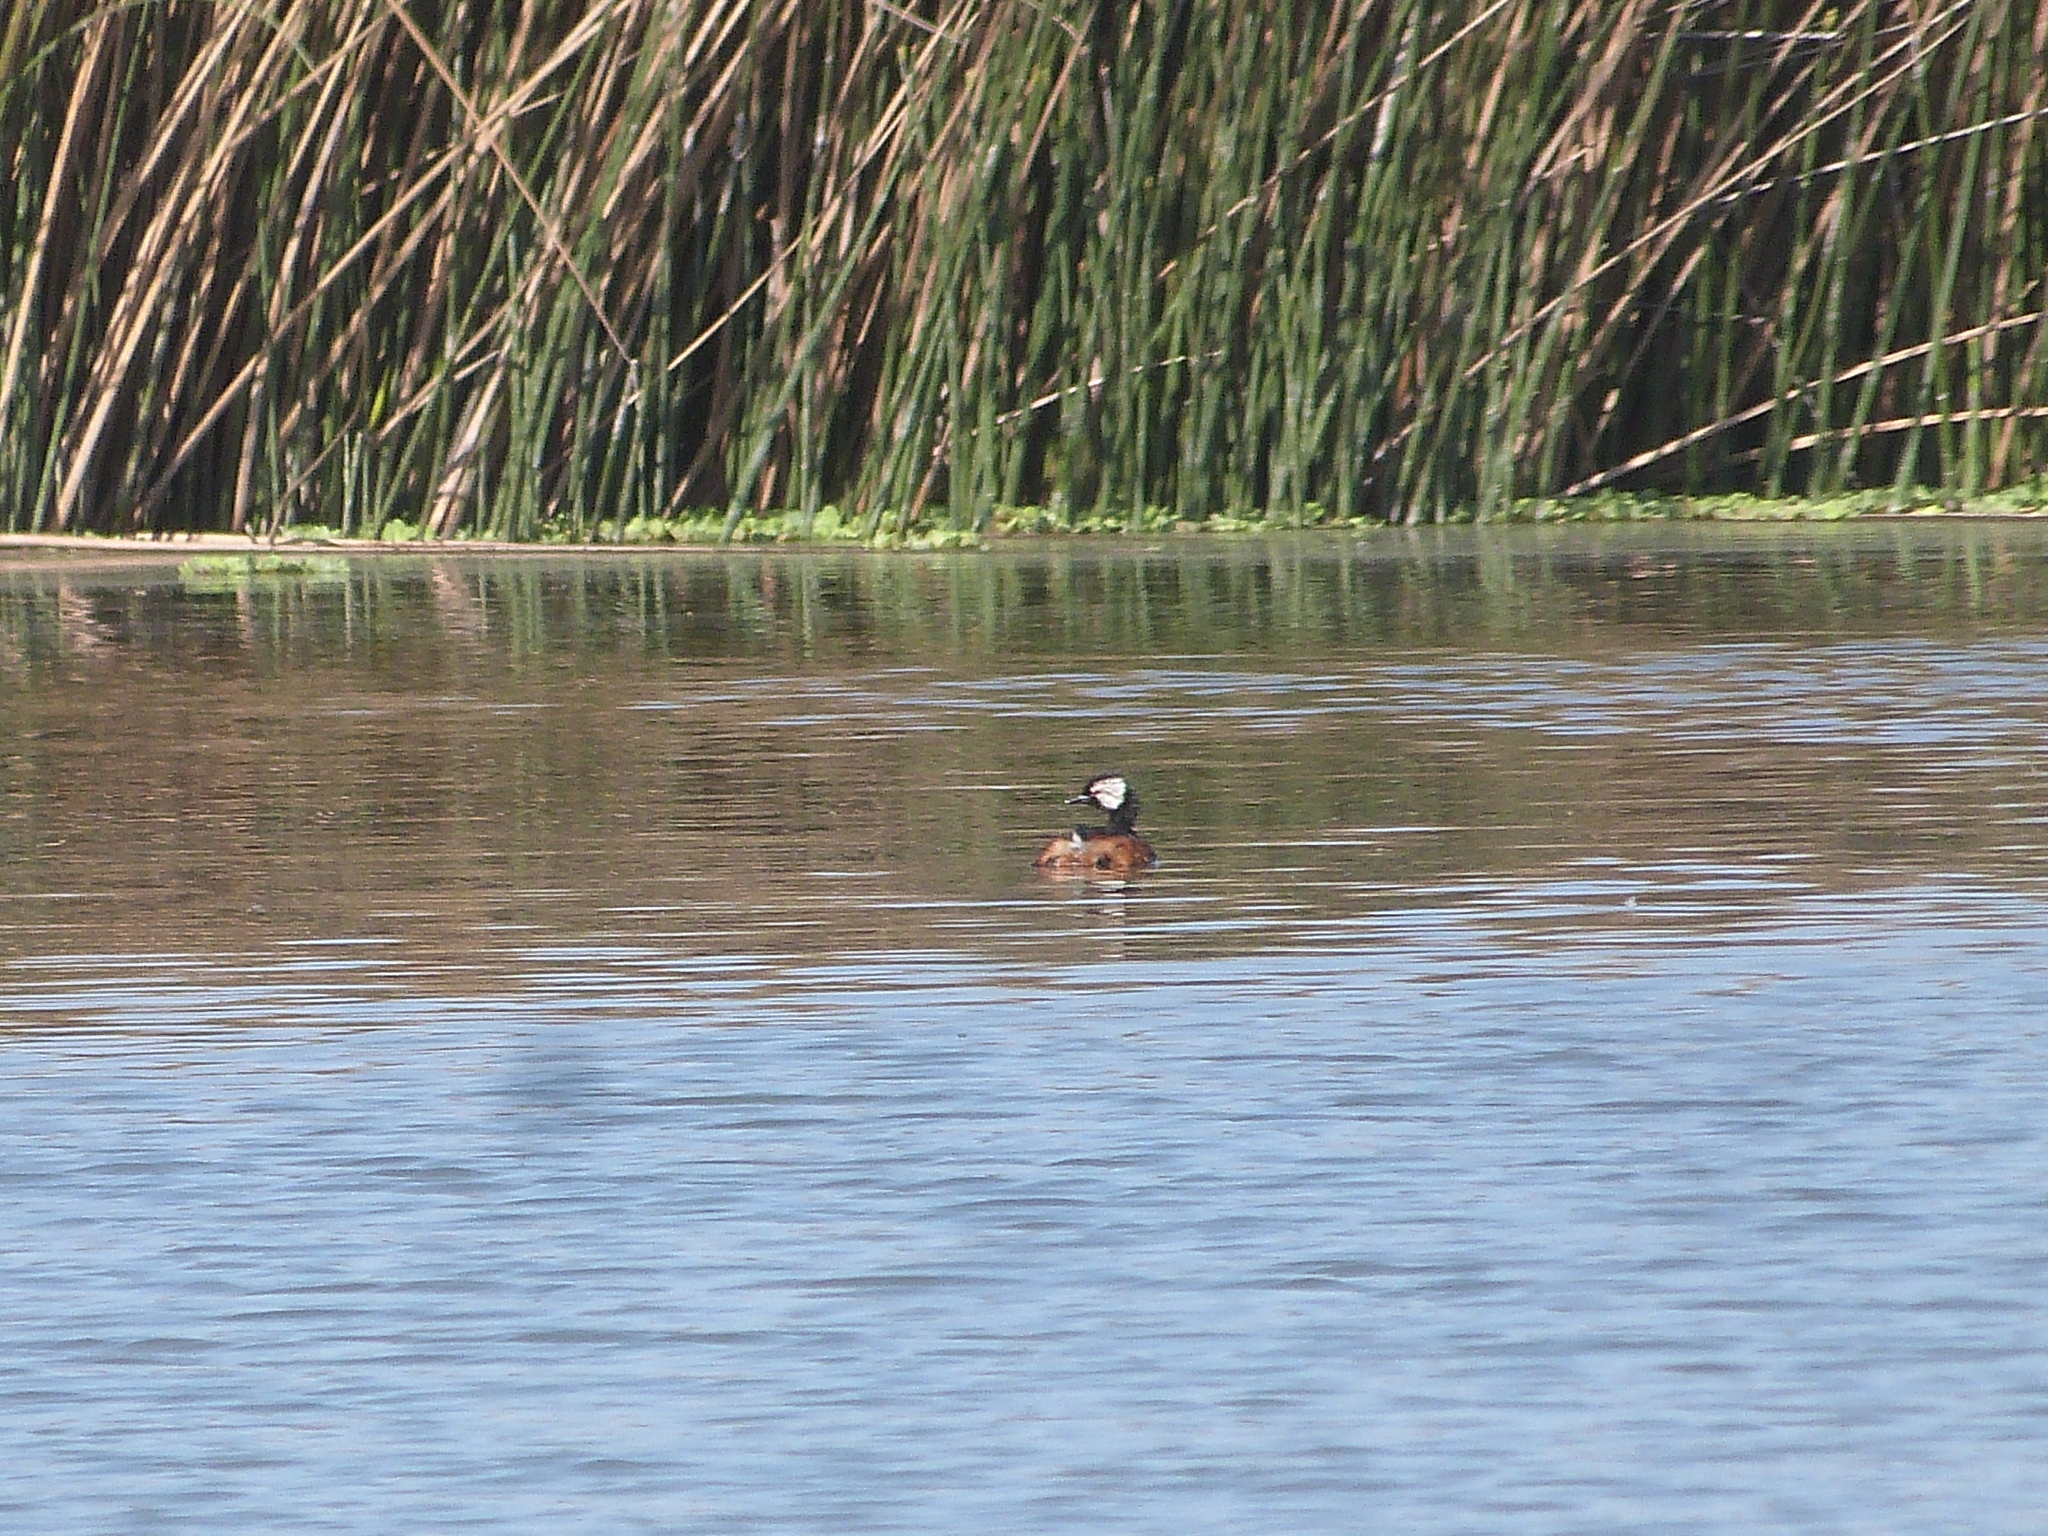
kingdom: Animalia
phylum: Chordata
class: Aves
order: Podicipediformes
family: Podicipedidae
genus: Rollandia
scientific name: Rollandia rolland
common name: White-tufted grebe
